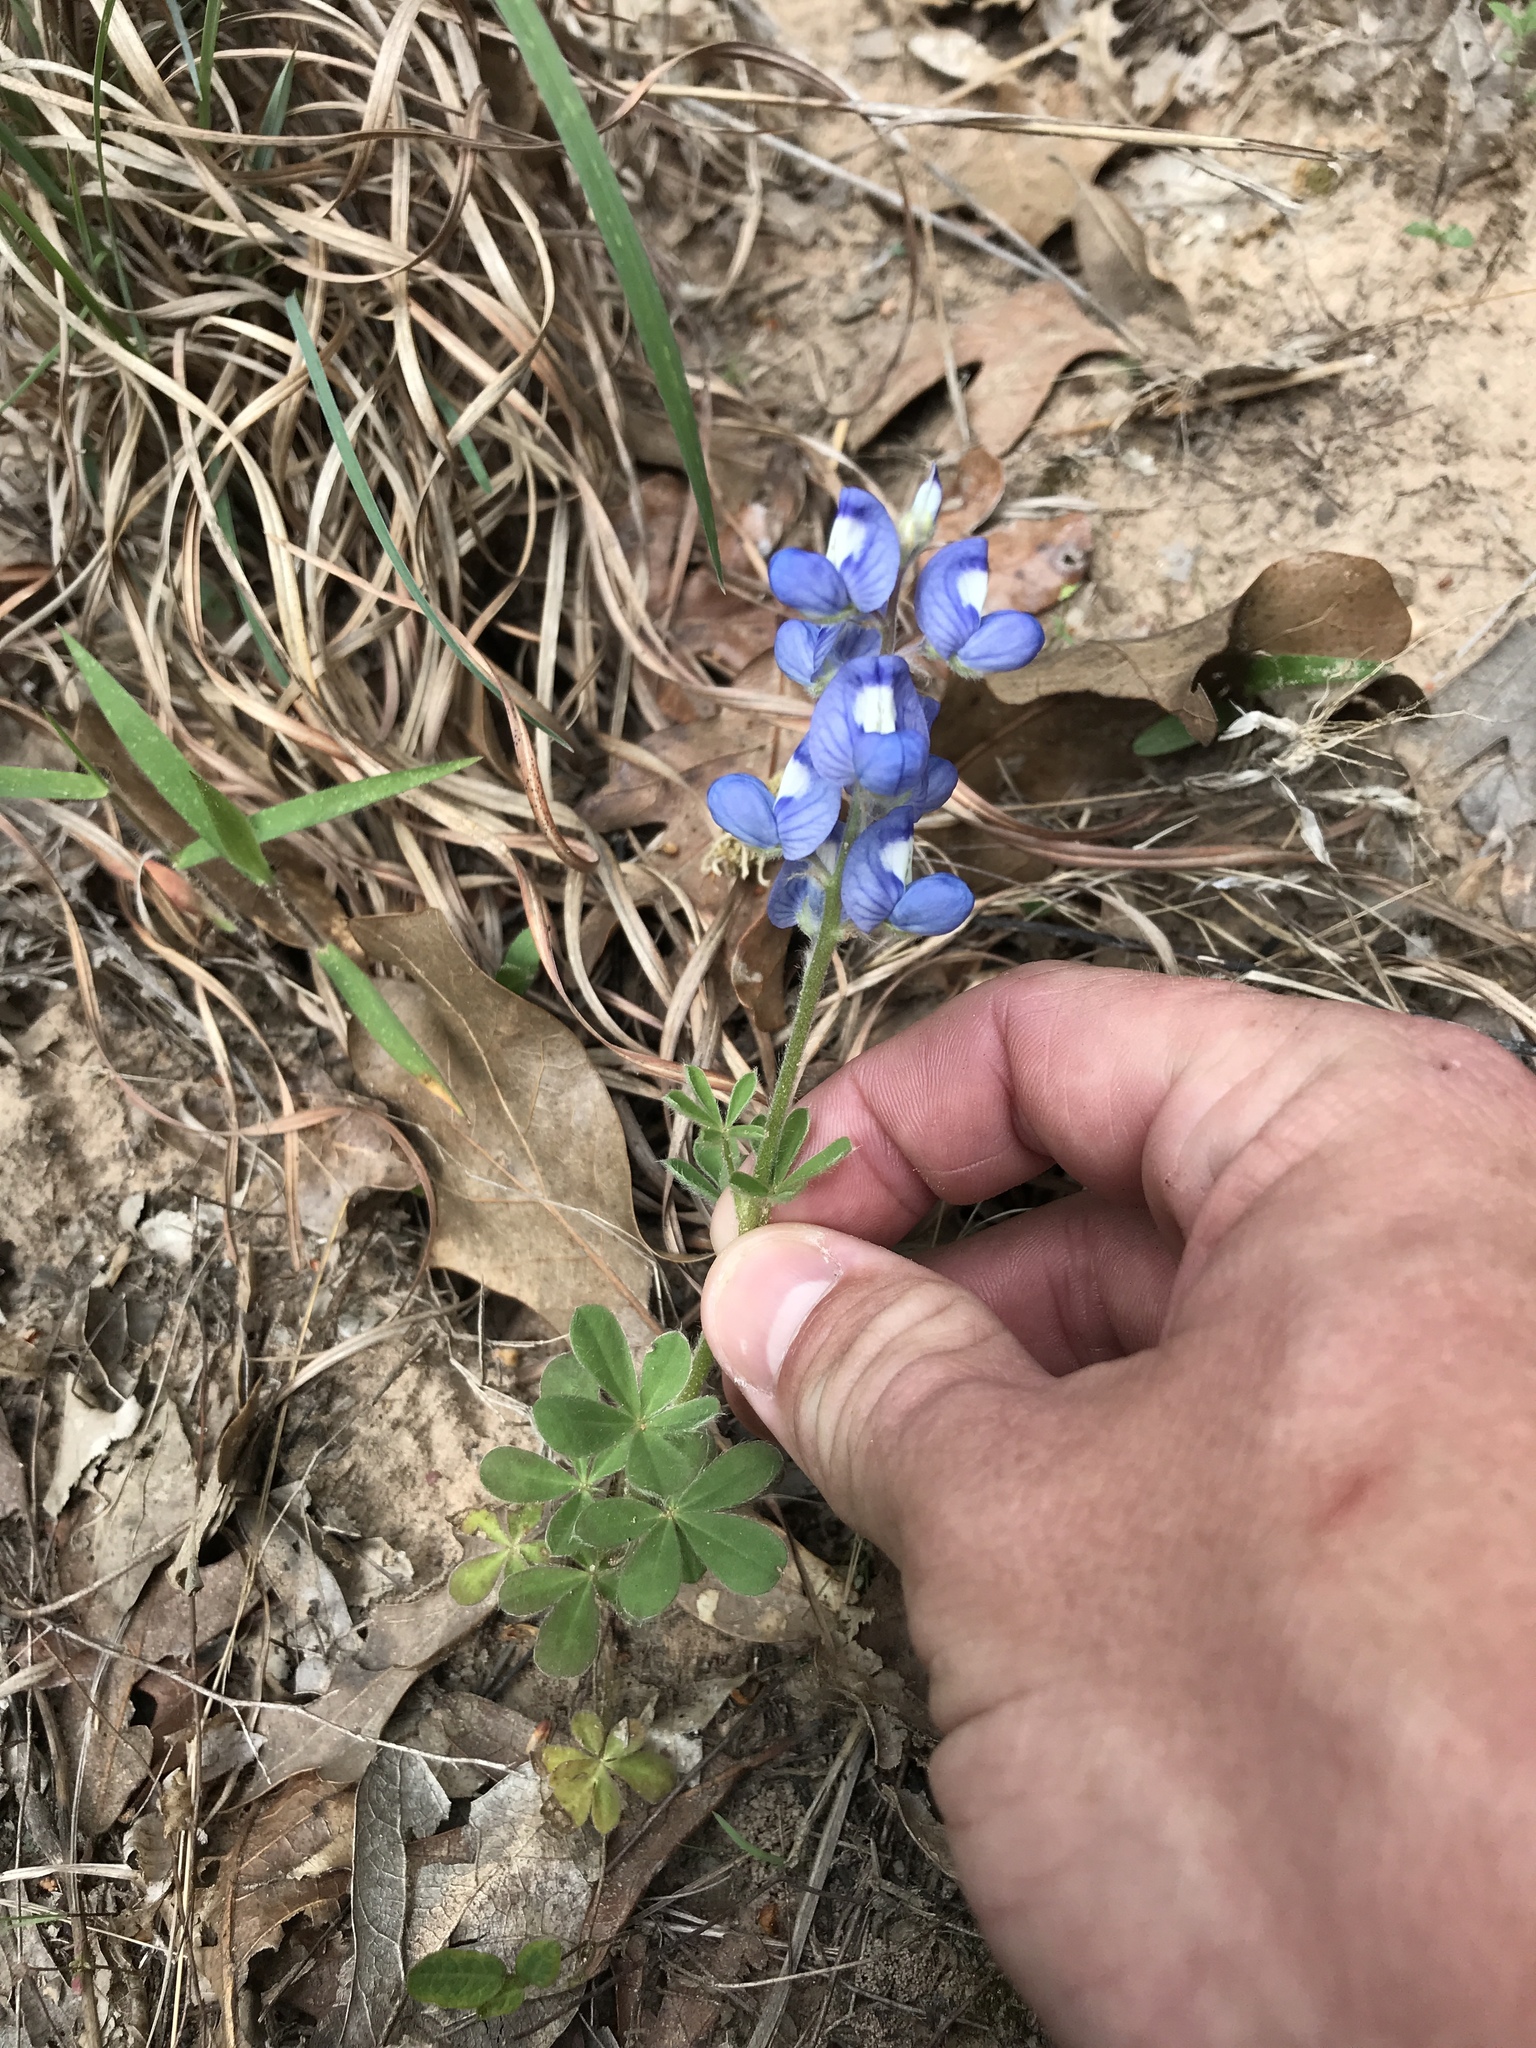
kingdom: Plantae
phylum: Tracheophyta
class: Magnoliopsida
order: Fabales
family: Fabaceae
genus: Lupinus
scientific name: Lupinus subcarnosus
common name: Texas bluebonnet
